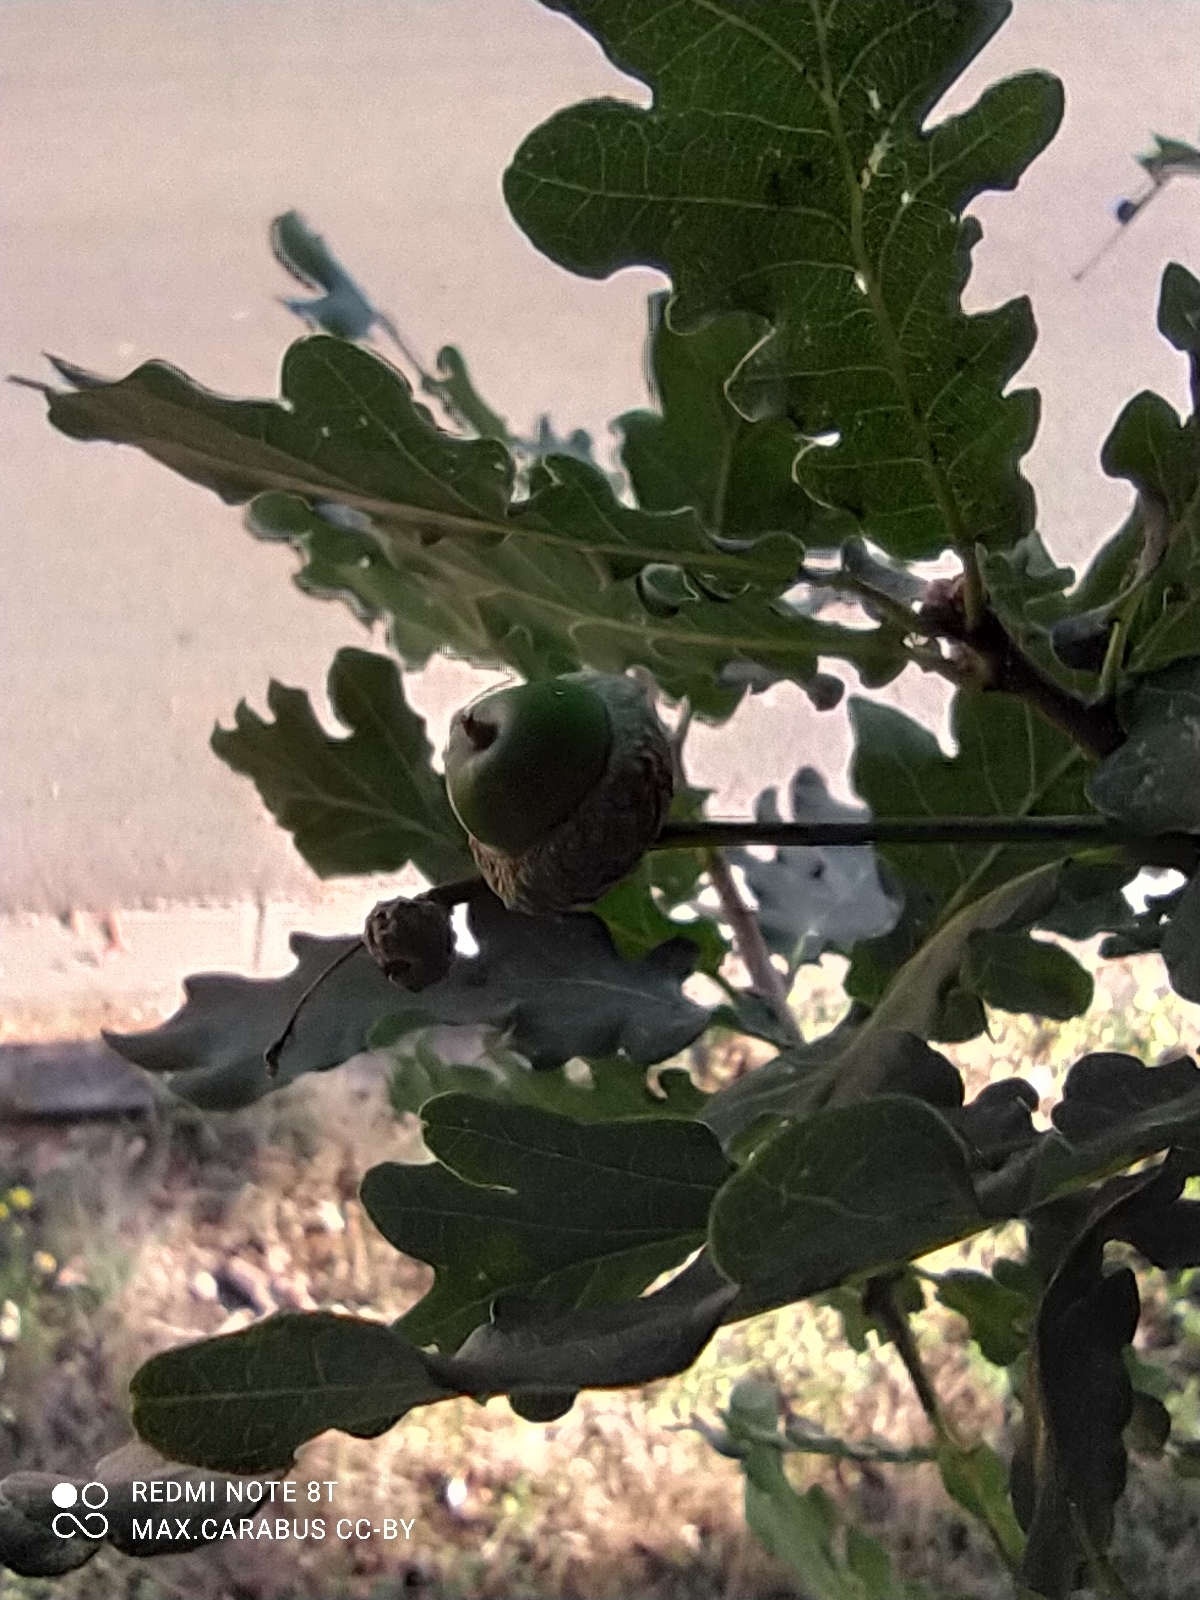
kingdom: Plantae
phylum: Tracheophyta
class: Magnoliopsida
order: Fagales
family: Fagaceae
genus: Quercus
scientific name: Quercus robur
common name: Pedunculate oak
